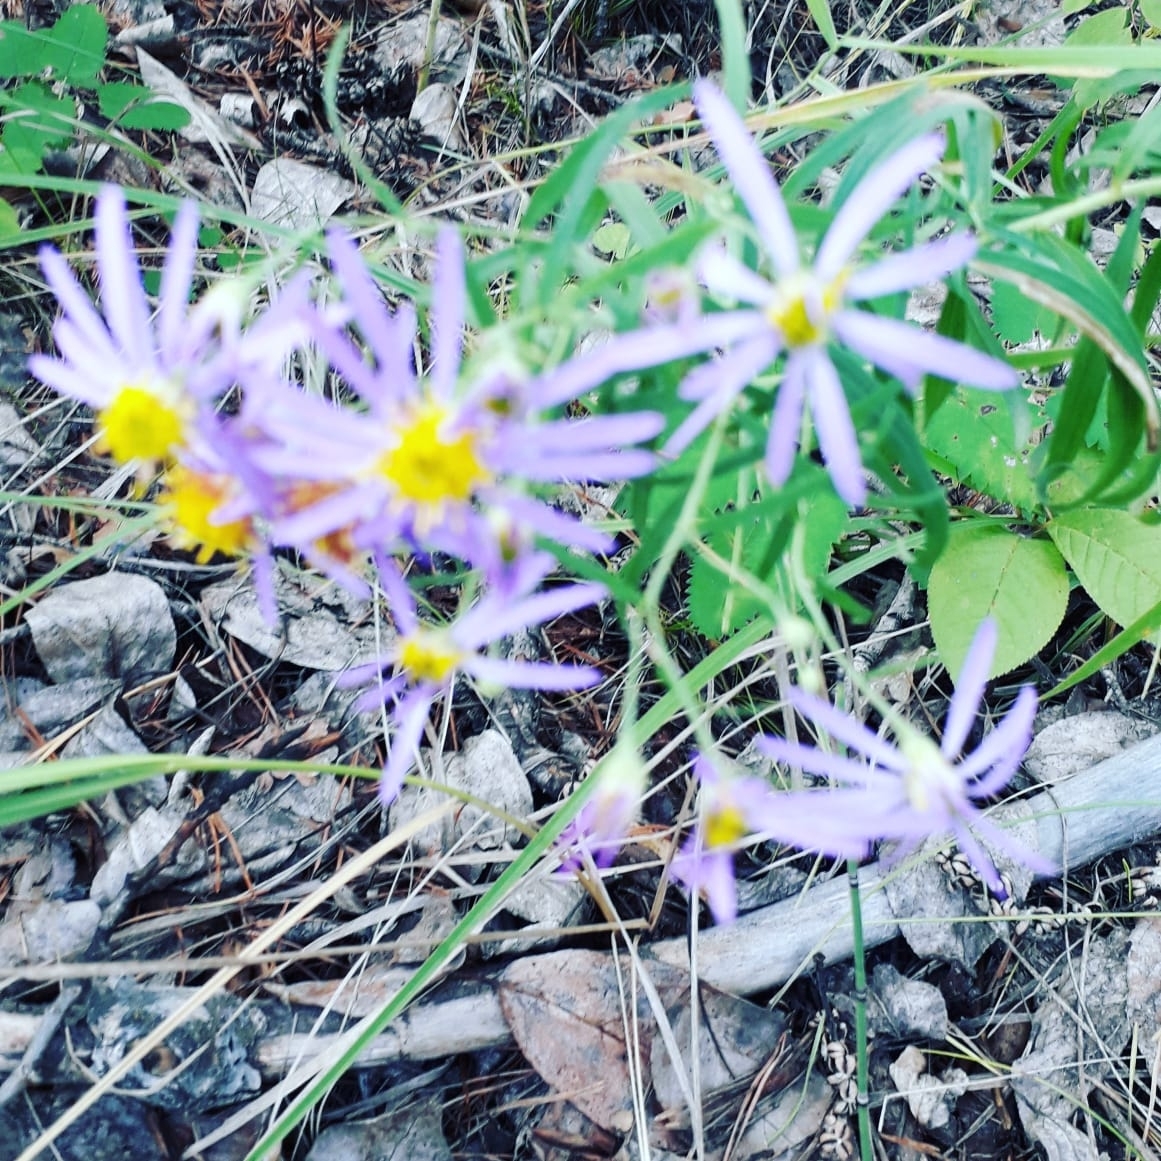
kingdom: Plantae
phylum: Tracheophyta
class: Magnoliopsida
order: Asterales
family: Asteraceae
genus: Galatella
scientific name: Galatella dahurica
